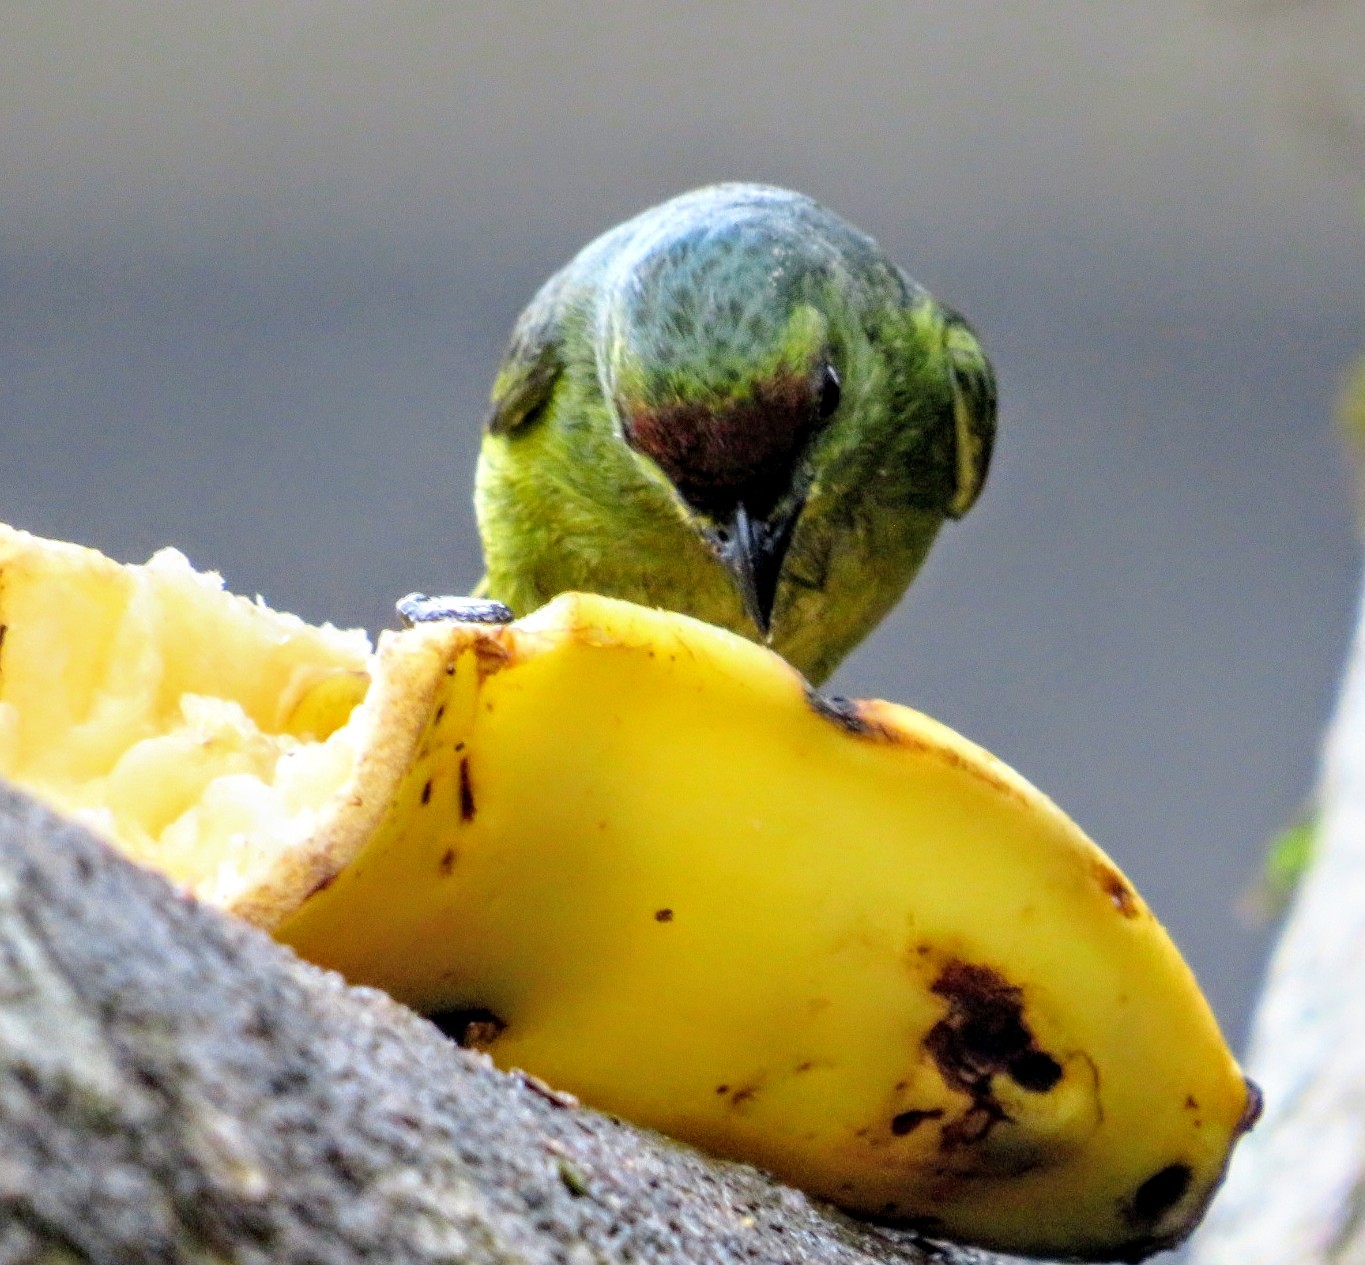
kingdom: Animalia
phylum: Chordata
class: Aves
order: Passeriformes
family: Fringillidae
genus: Euphonia
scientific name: Euphonia gouldi
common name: Olive-backed euphonia
